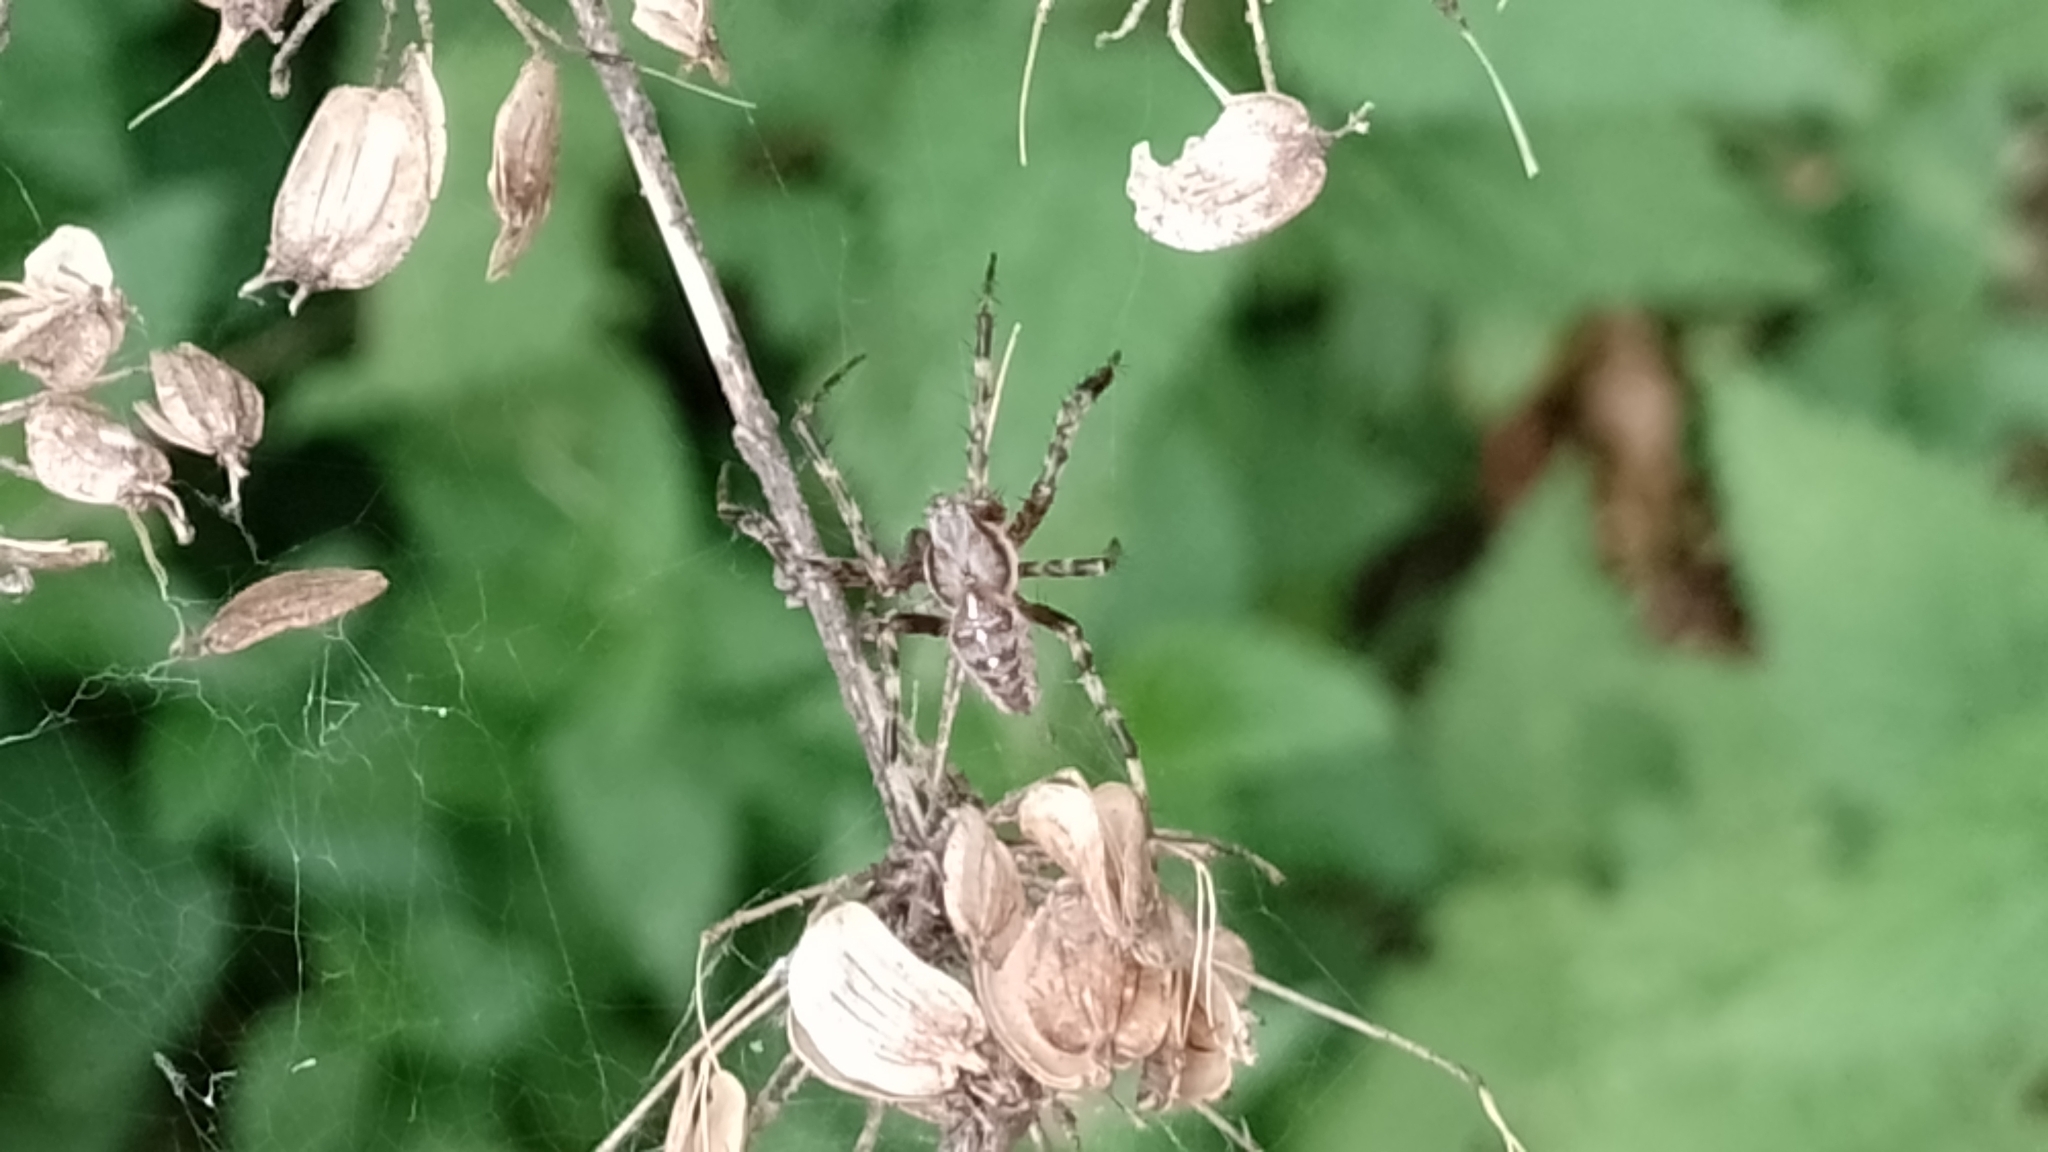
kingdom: Animalia
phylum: Arthropoda
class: Arachnida
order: Araneae
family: Araneidae
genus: Araneus
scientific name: Araneus diadematus
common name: Cross orbweaver
